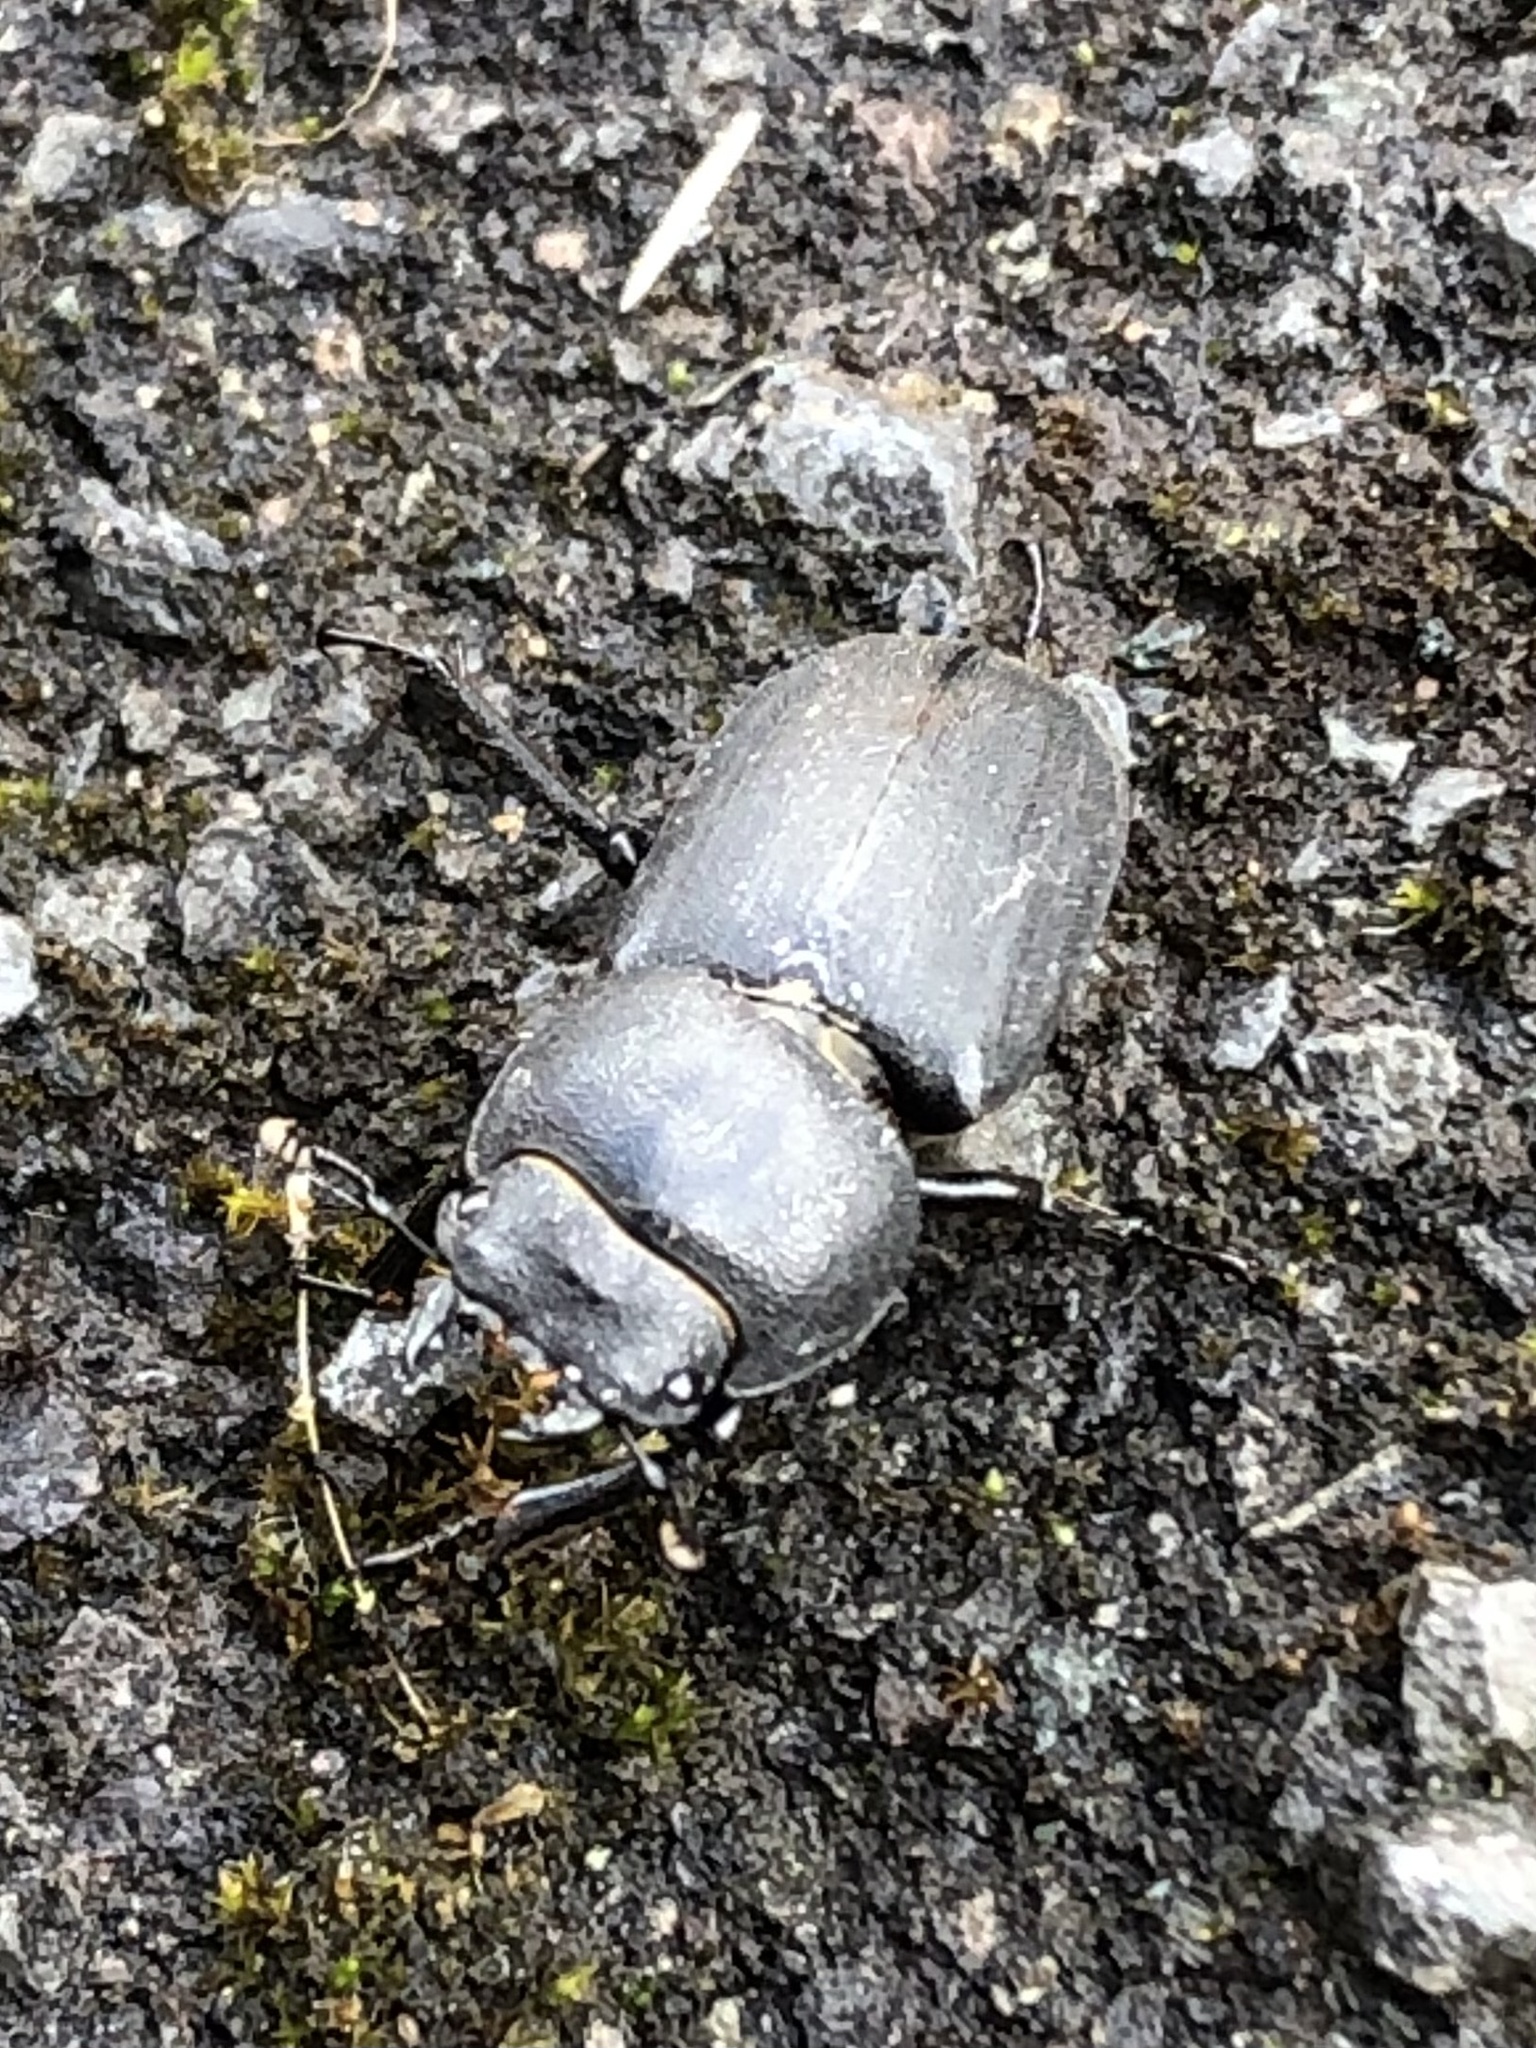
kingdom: Animalia
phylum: Arthropoda
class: Insecta
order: Coleoptera
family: Lucanidae
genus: Dorcus
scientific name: Dorcus parallelipipedus
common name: Lesser stag beetle
